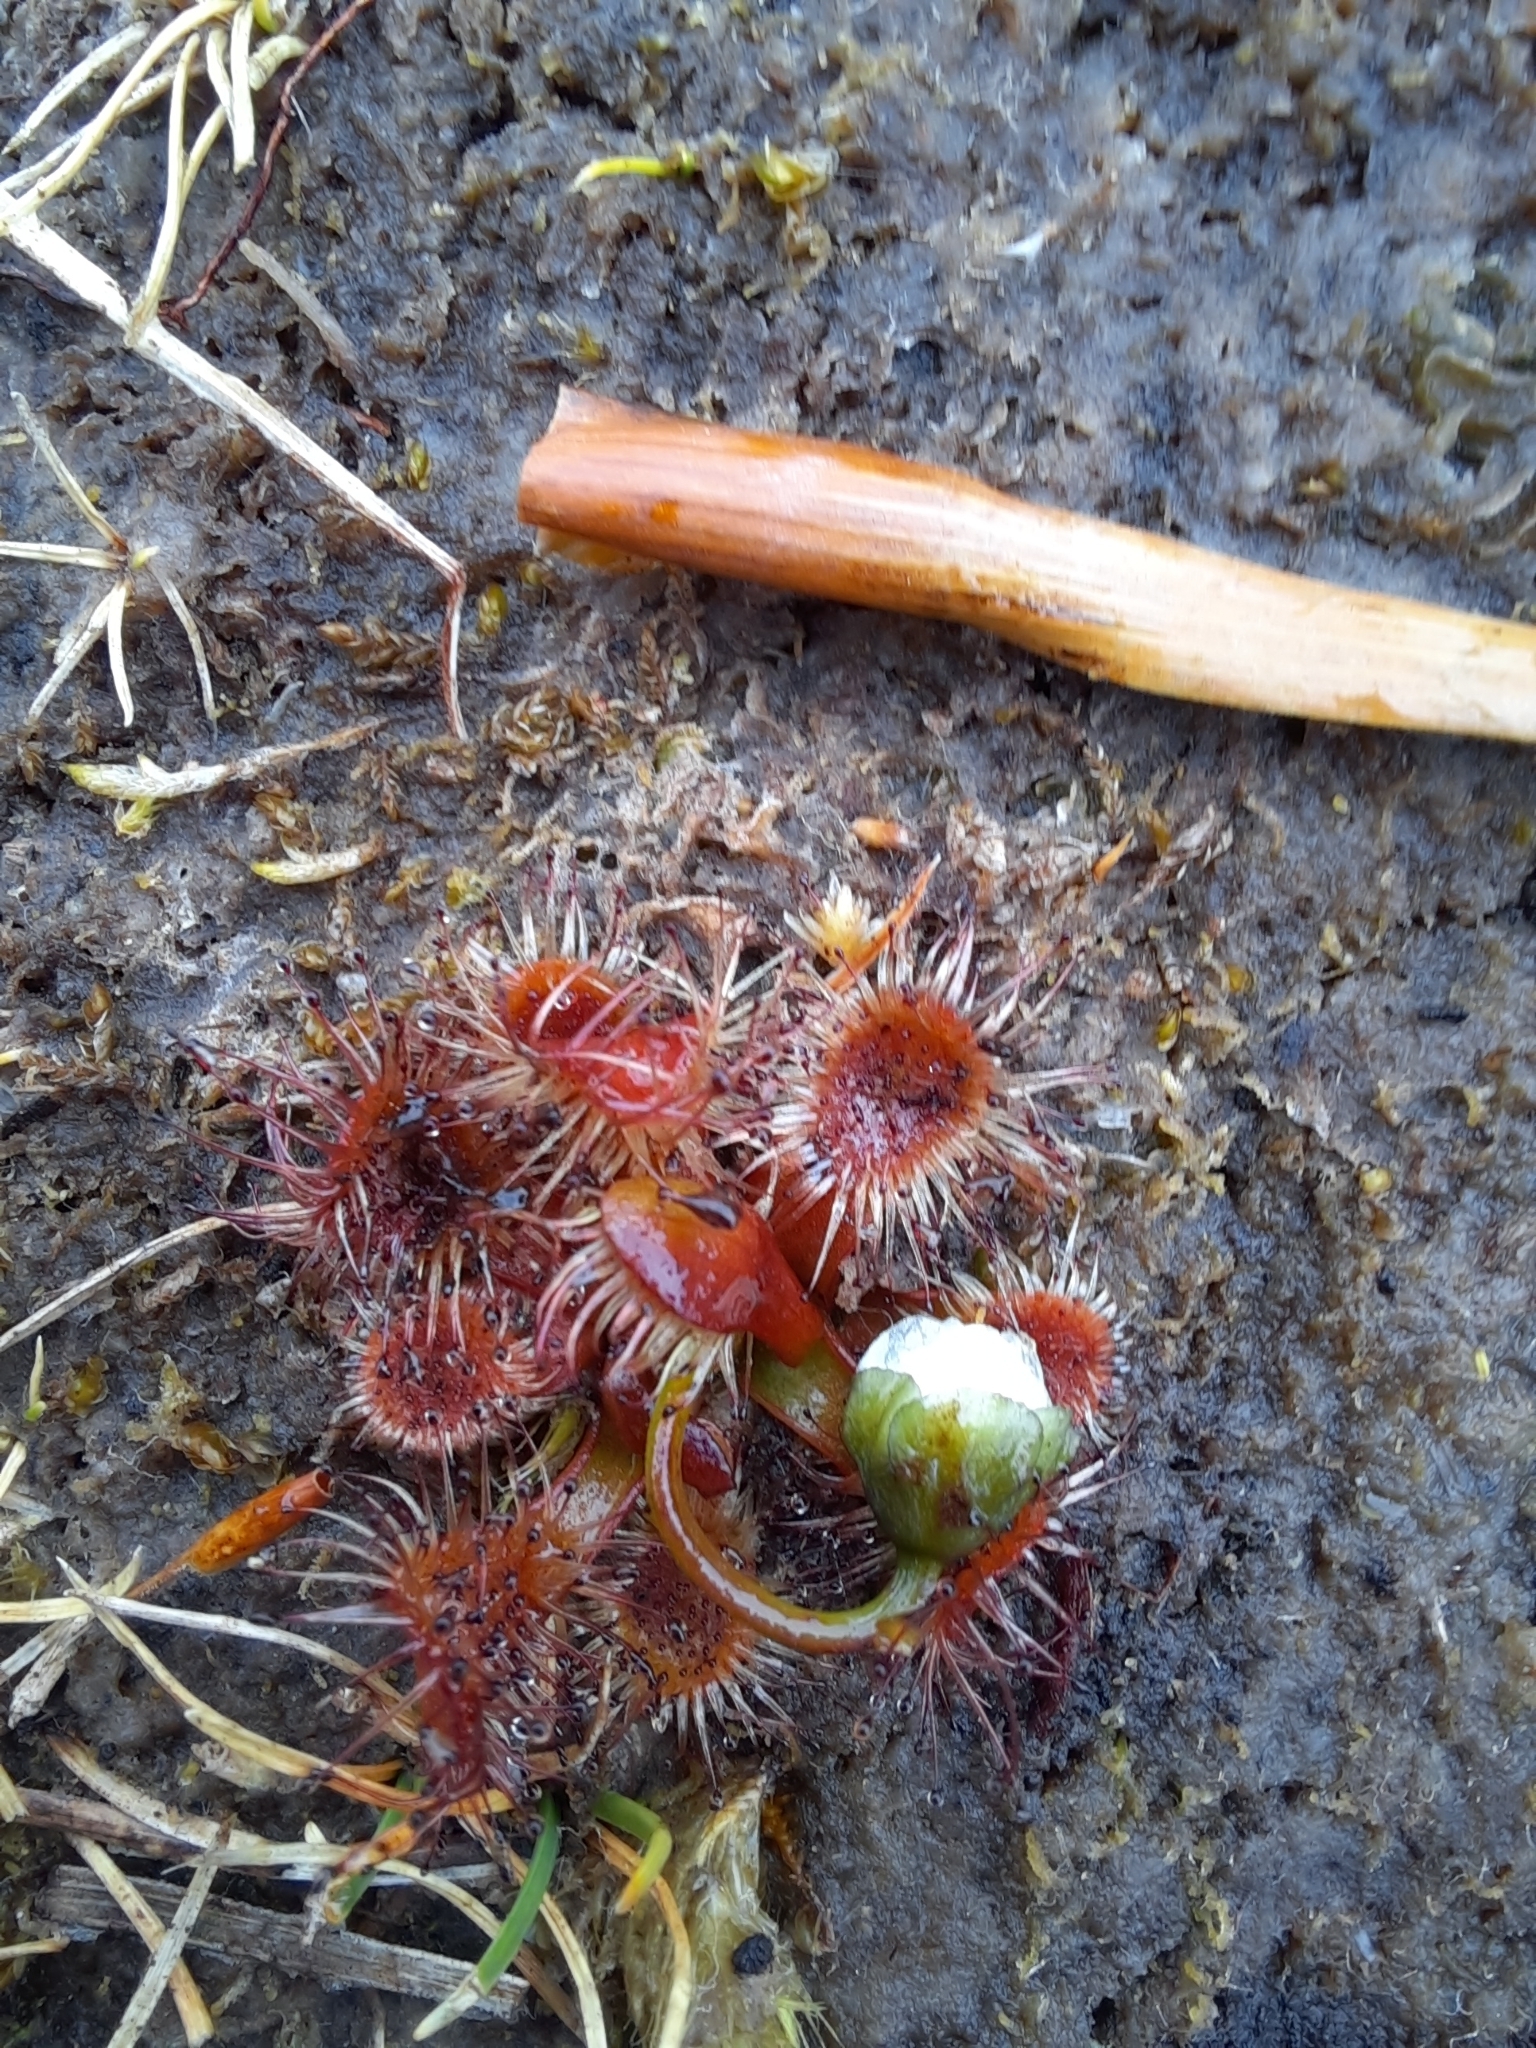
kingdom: Plantae
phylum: Tracheophyta
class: Magnoliopsida
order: Caryophyllales
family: Droseraceae
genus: Drosera
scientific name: Drosera stenopetala
